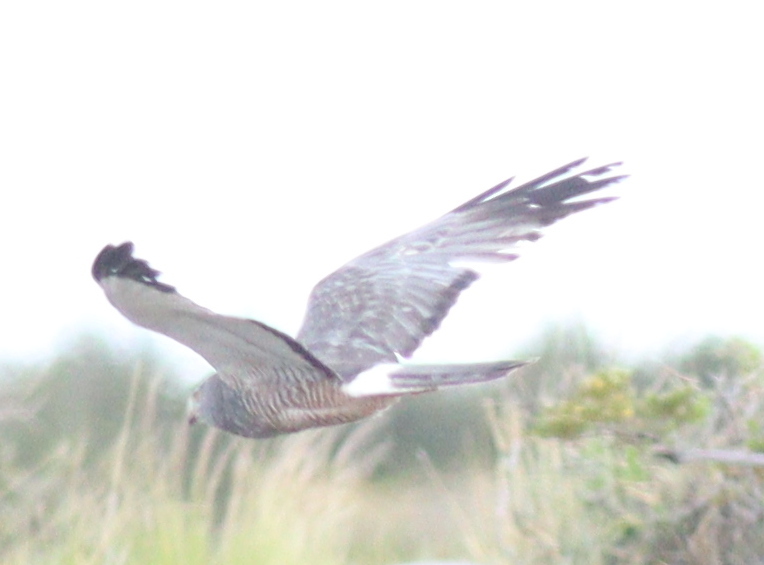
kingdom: Animalia
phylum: Chordata
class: Aves
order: Accipitriformes
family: Accipitridae
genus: Circus
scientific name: Circus cinereus
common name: Cinereous harrier
